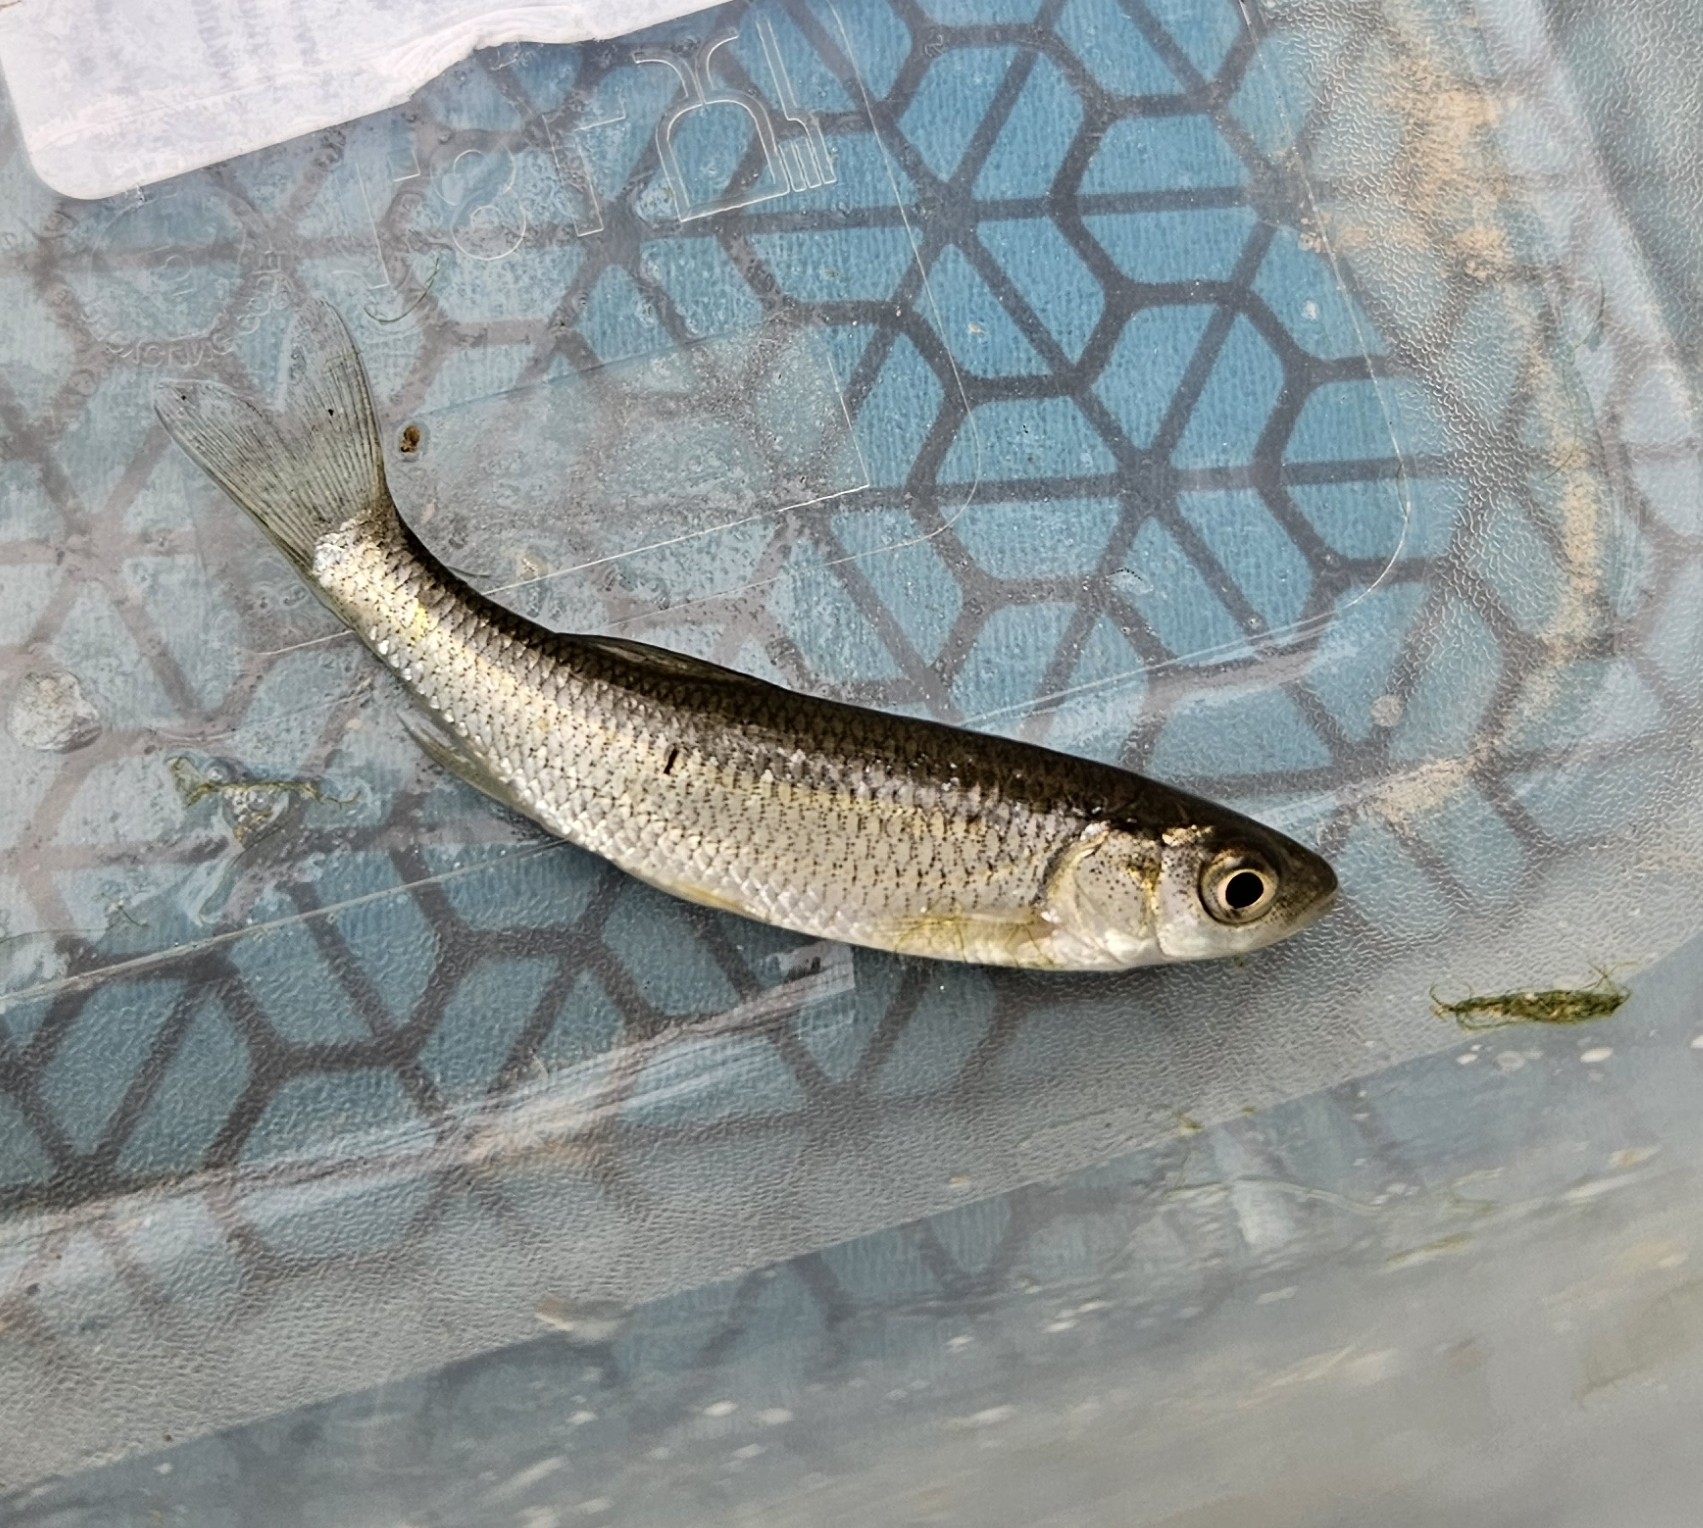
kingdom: Animalia
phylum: Chordata
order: Cypriniformes
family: Cyprinidae
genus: Squalius
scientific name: Squalius cephalus
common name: Chub
